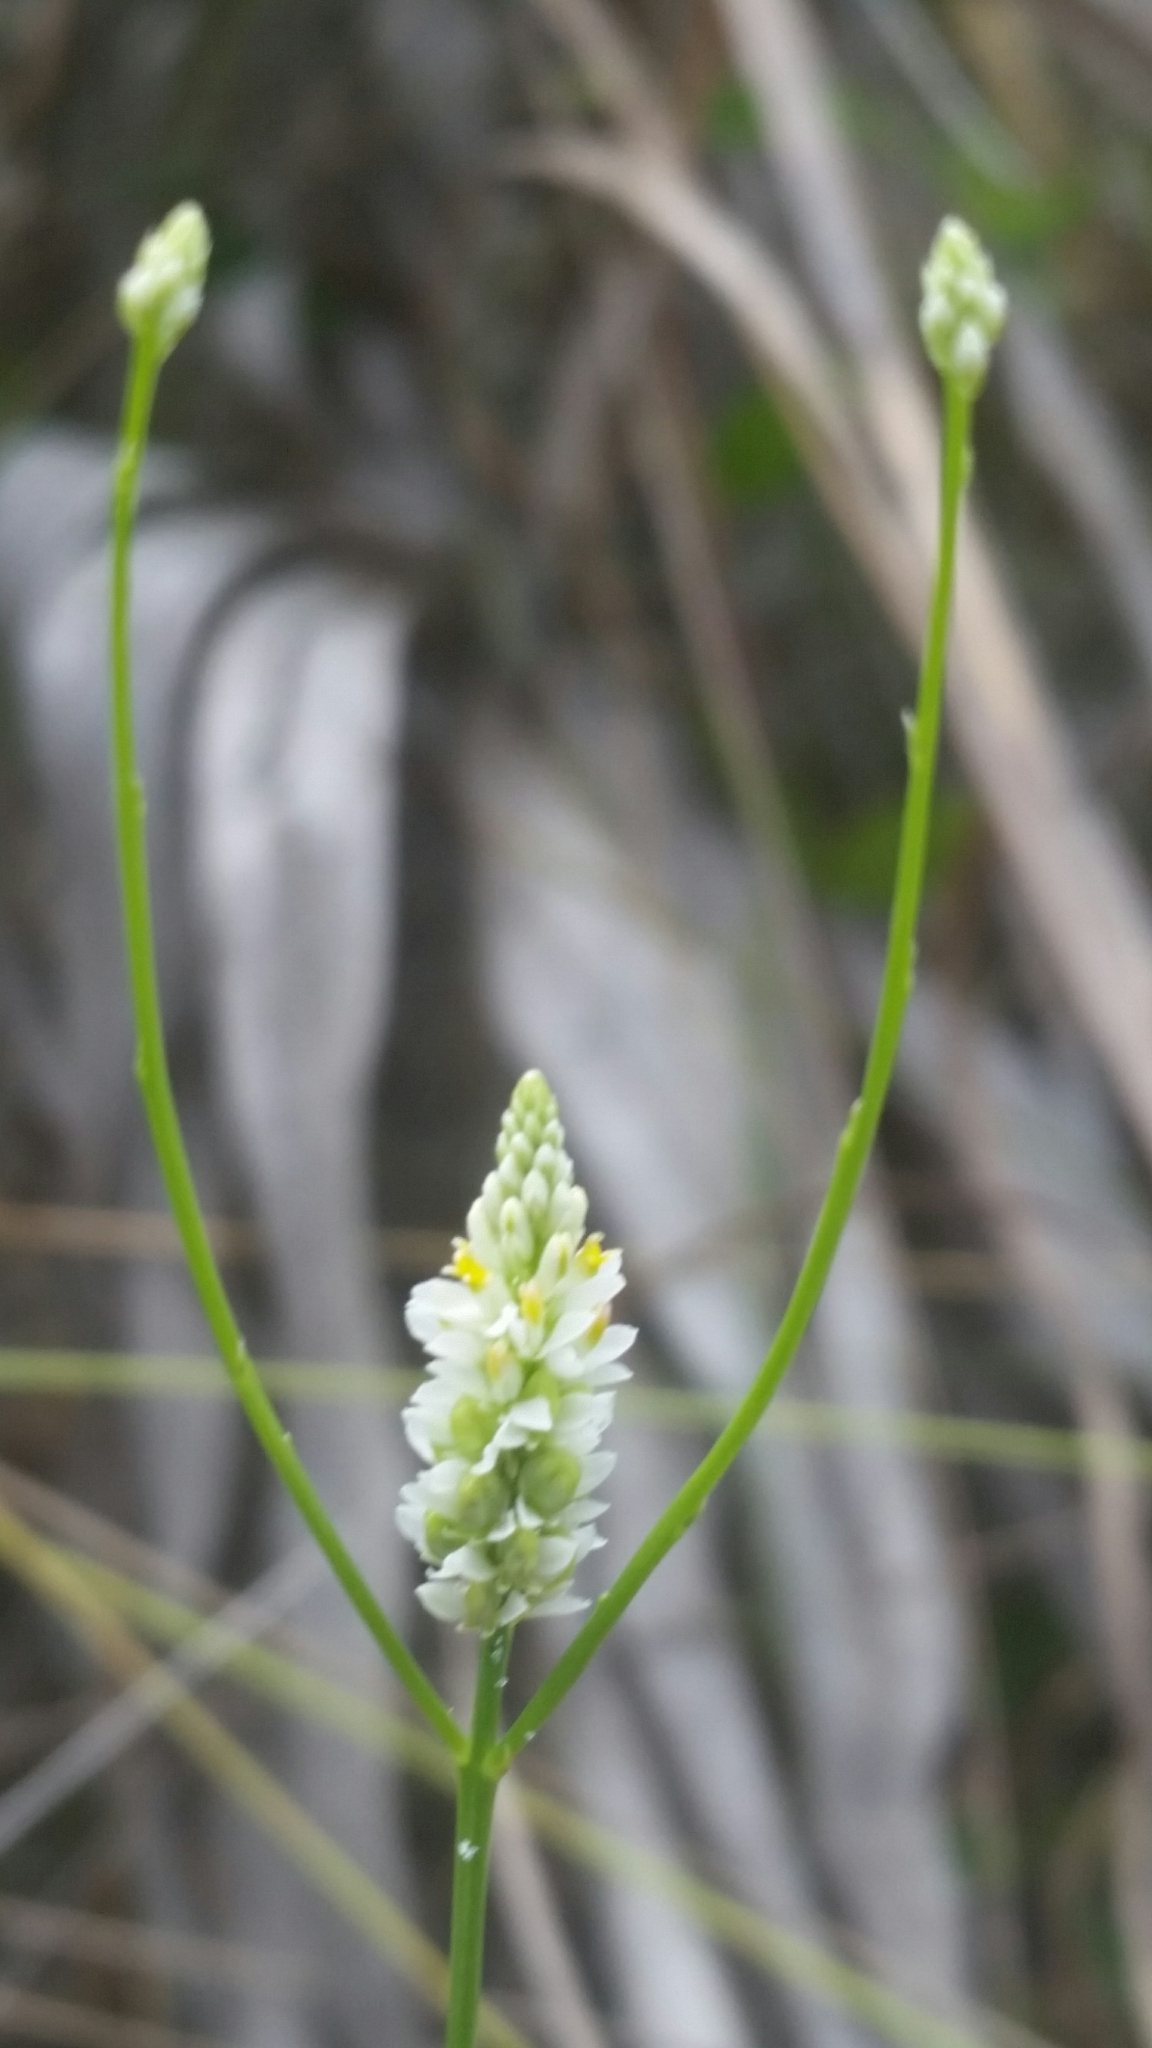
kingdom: Plantae
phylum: Tracheophyta
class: Magnoliopsida
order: Fabales
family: Polygalaceae
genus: Polygala
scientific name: Polygala setacea
